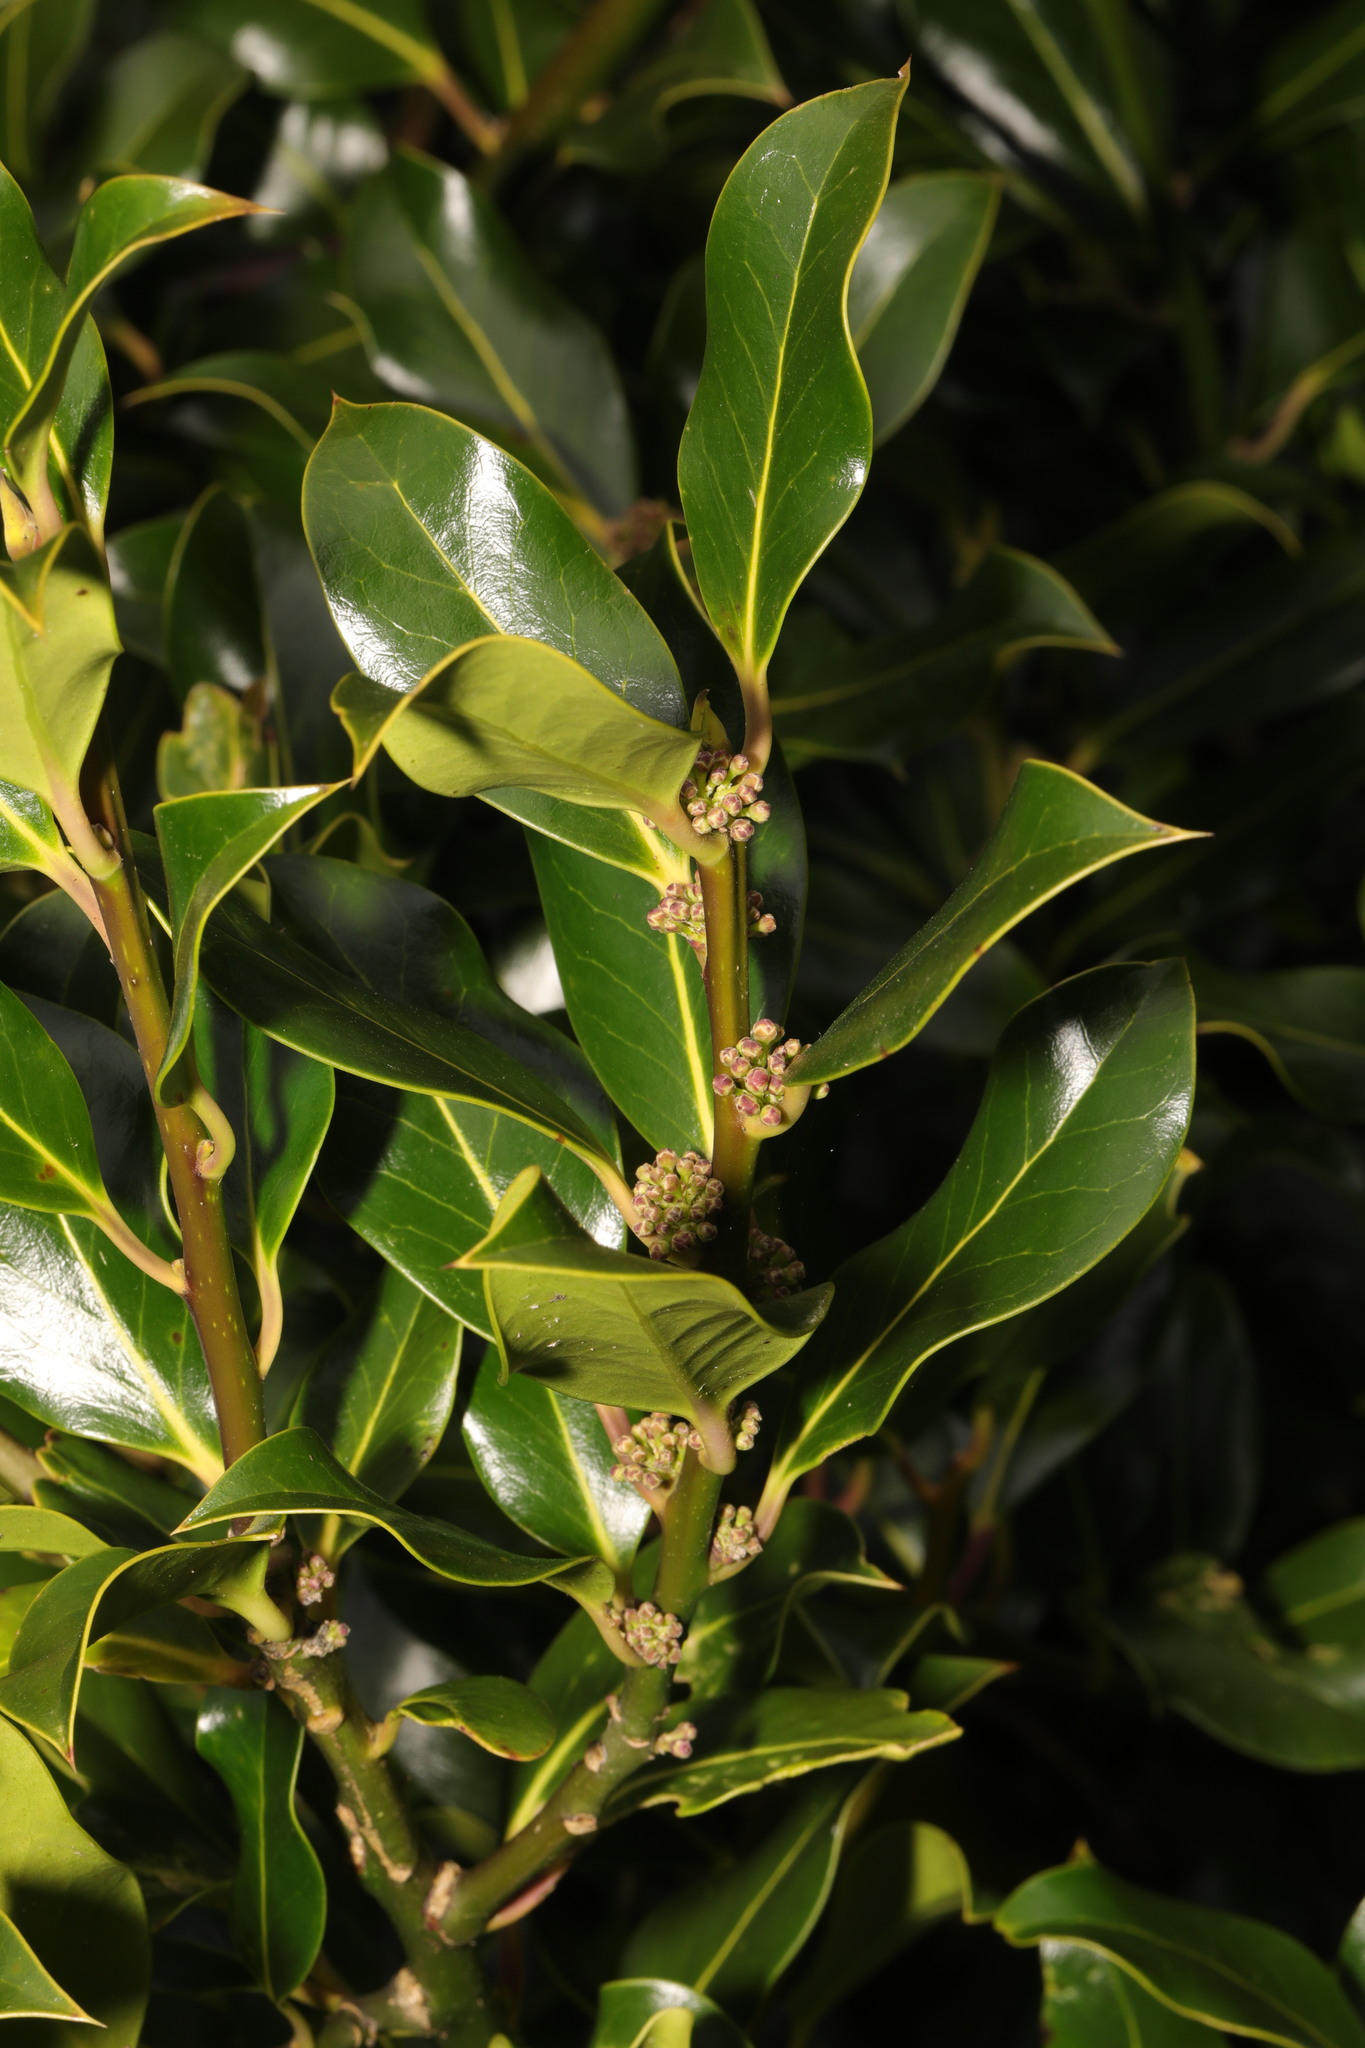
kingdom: Plantae
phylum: Tracheophyta
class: Magnoliopsida
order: Aquifoliales
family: Aquifoliaceae
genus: Ilex
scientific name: Ilex altaclerensis
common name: Highclere holly
